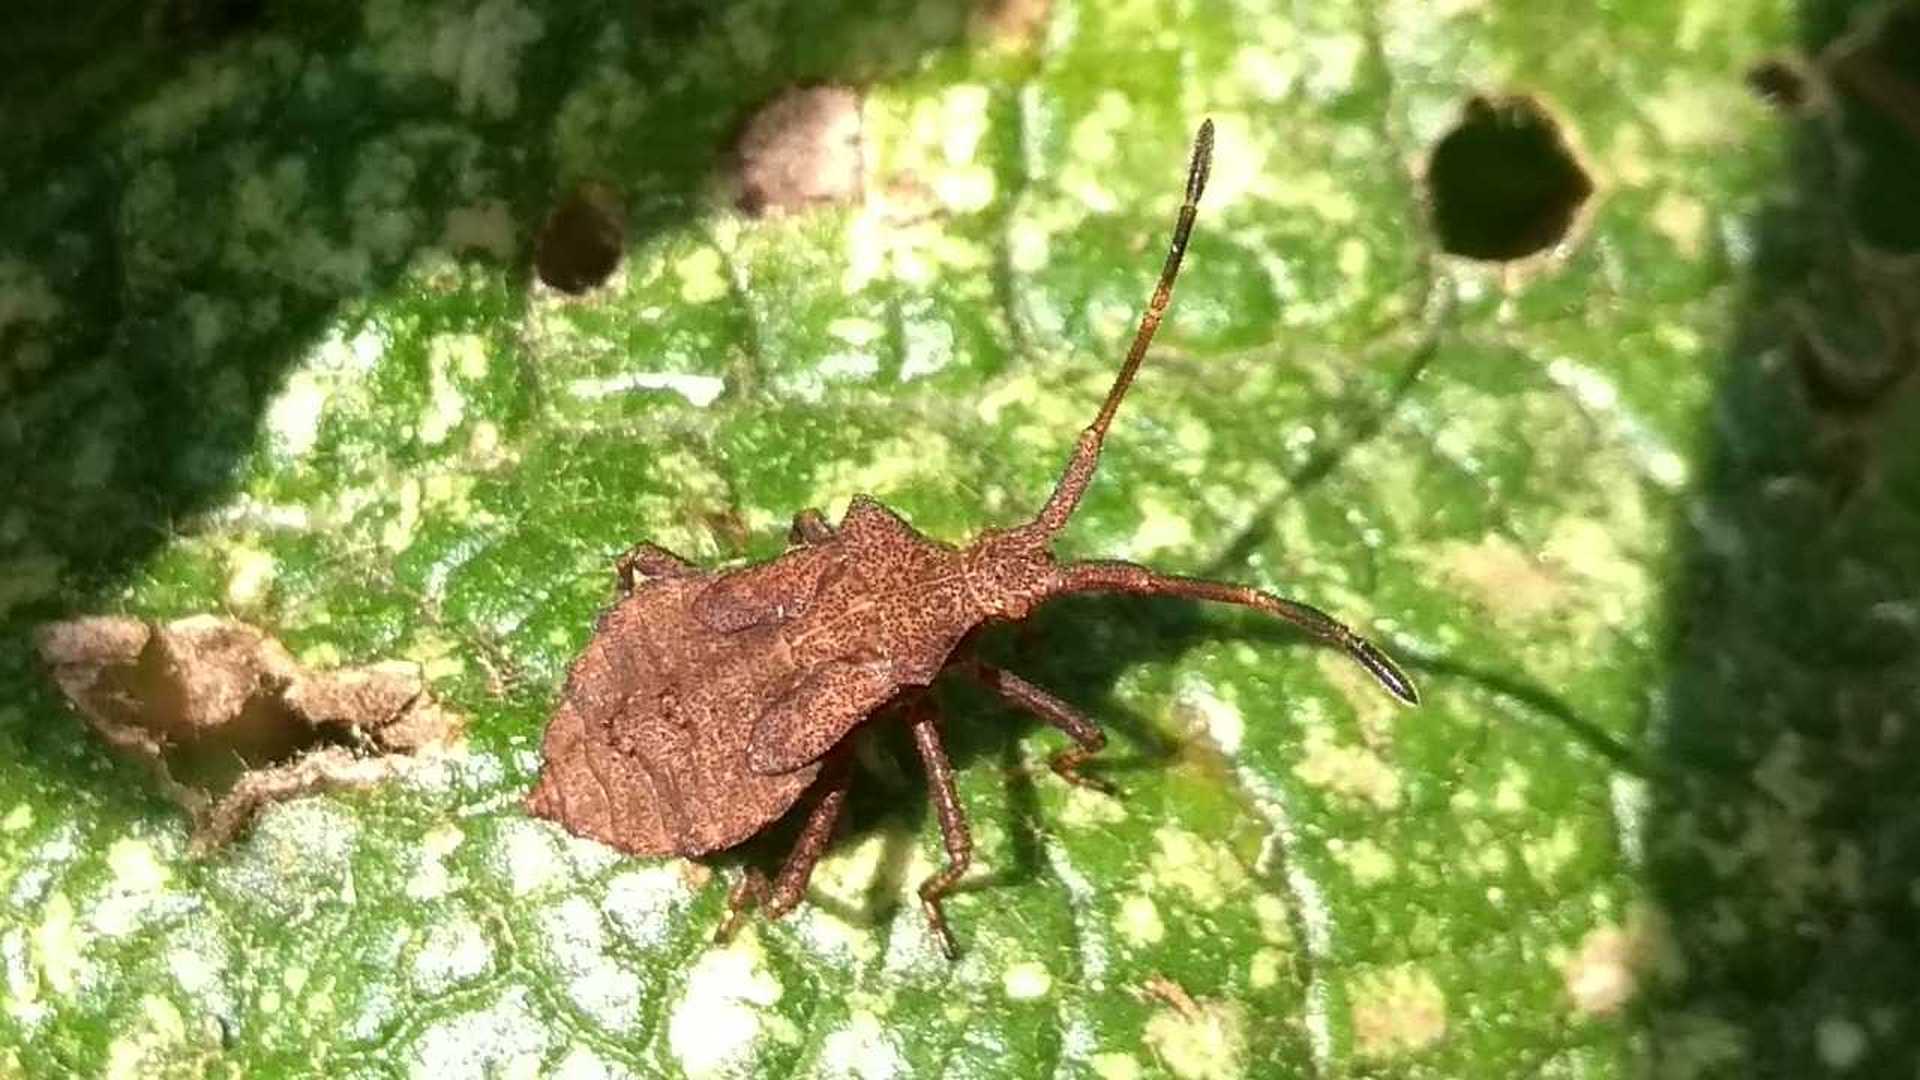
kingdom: Animalia
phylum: Arthropoda
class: Insecta
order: Hemiptera
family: Coreidae
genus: Coreus
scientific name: Coreus marginatus
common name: Dock bug
